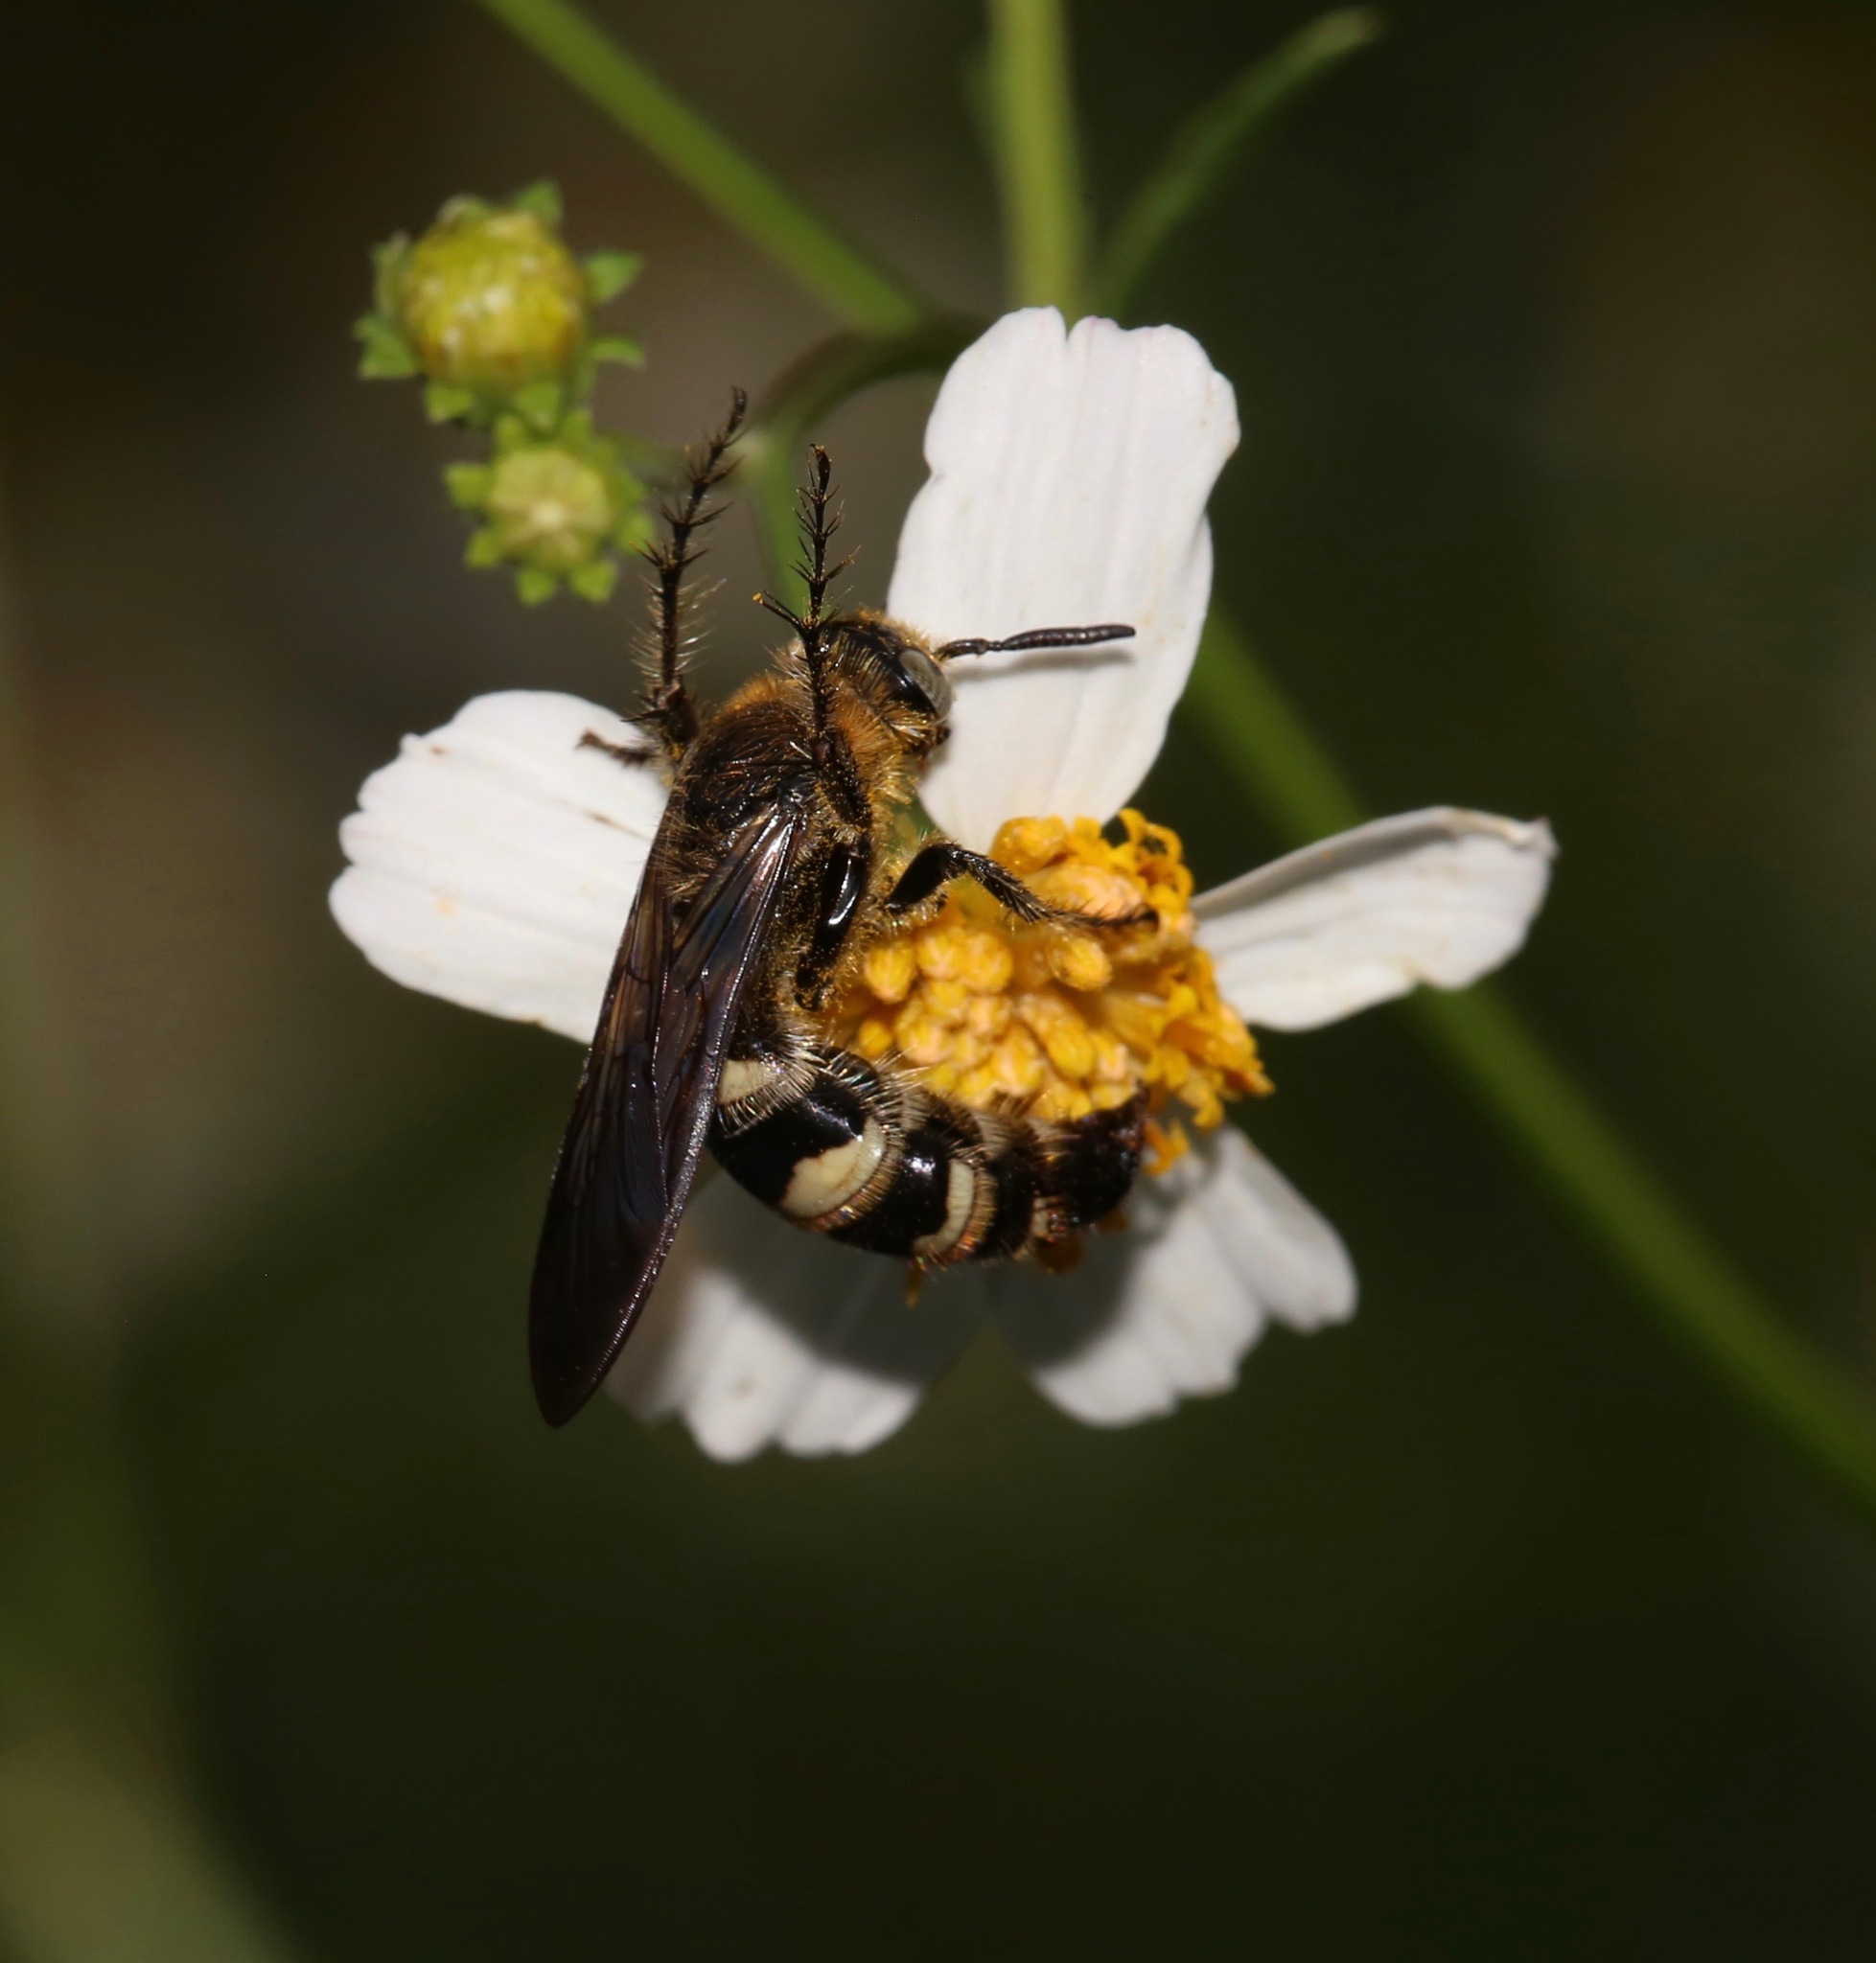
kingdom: Animalia
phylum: Arthropoda
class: Insecta
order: Hymenoptera
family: Scoliidae
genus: Dielis
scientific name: Dielis
